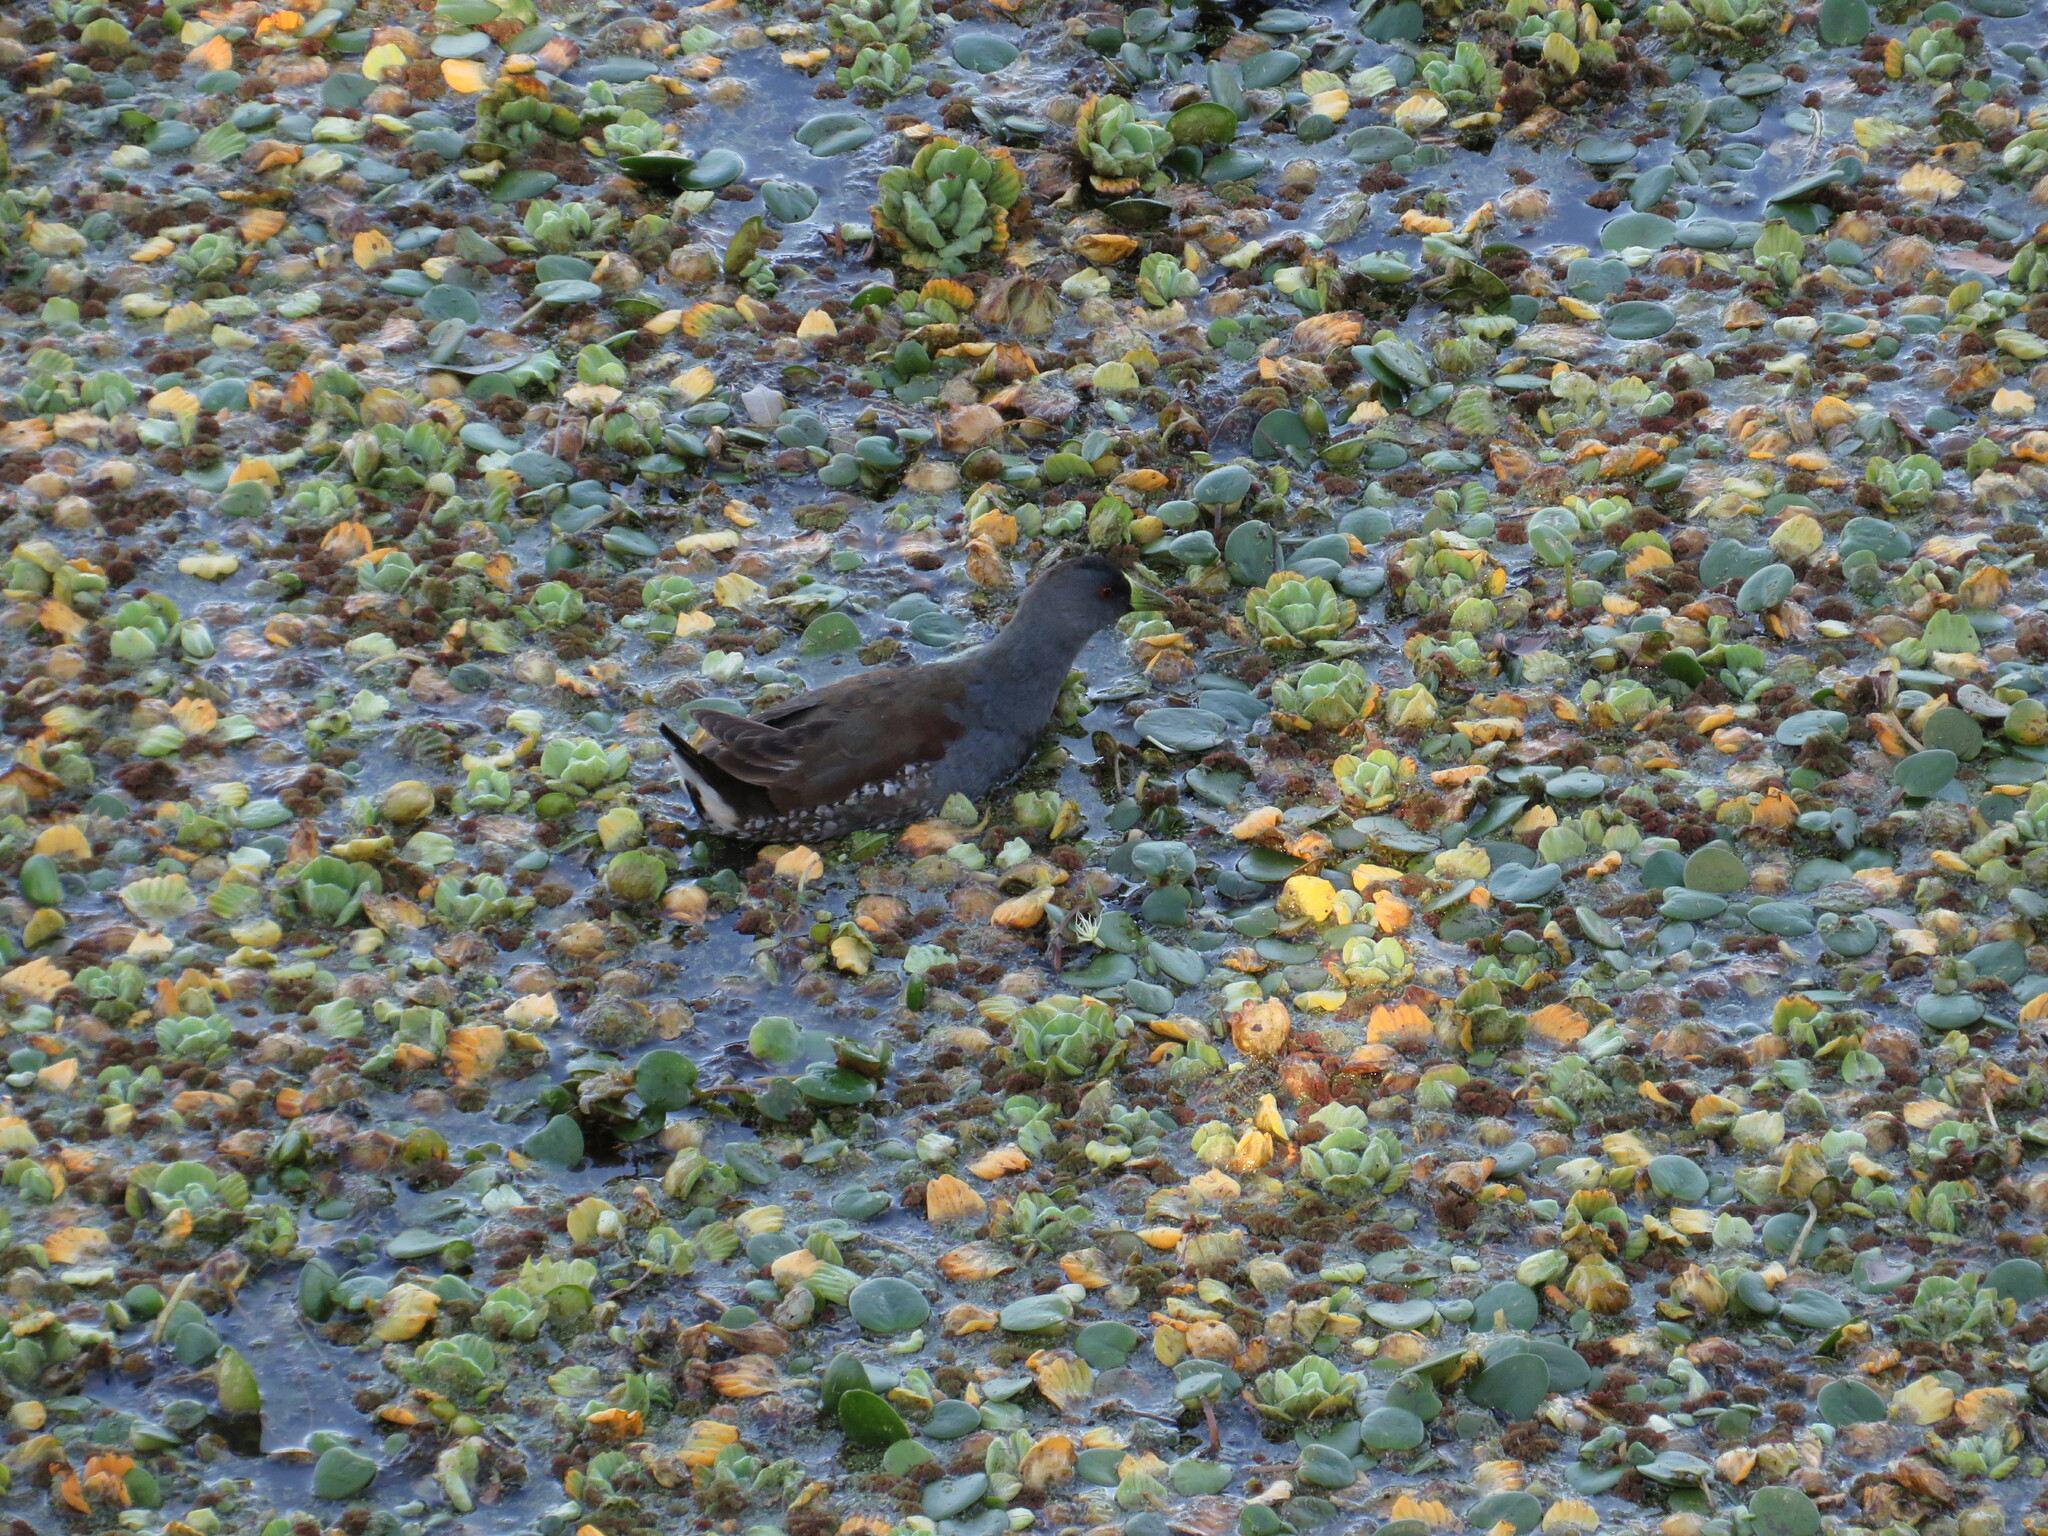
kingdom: Animalia
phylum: Chordata
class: Aves
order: Gruiformes
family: Rallidae
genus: Gallinula
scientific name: Gallinula melanops
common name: Spot-flanked gallinule
